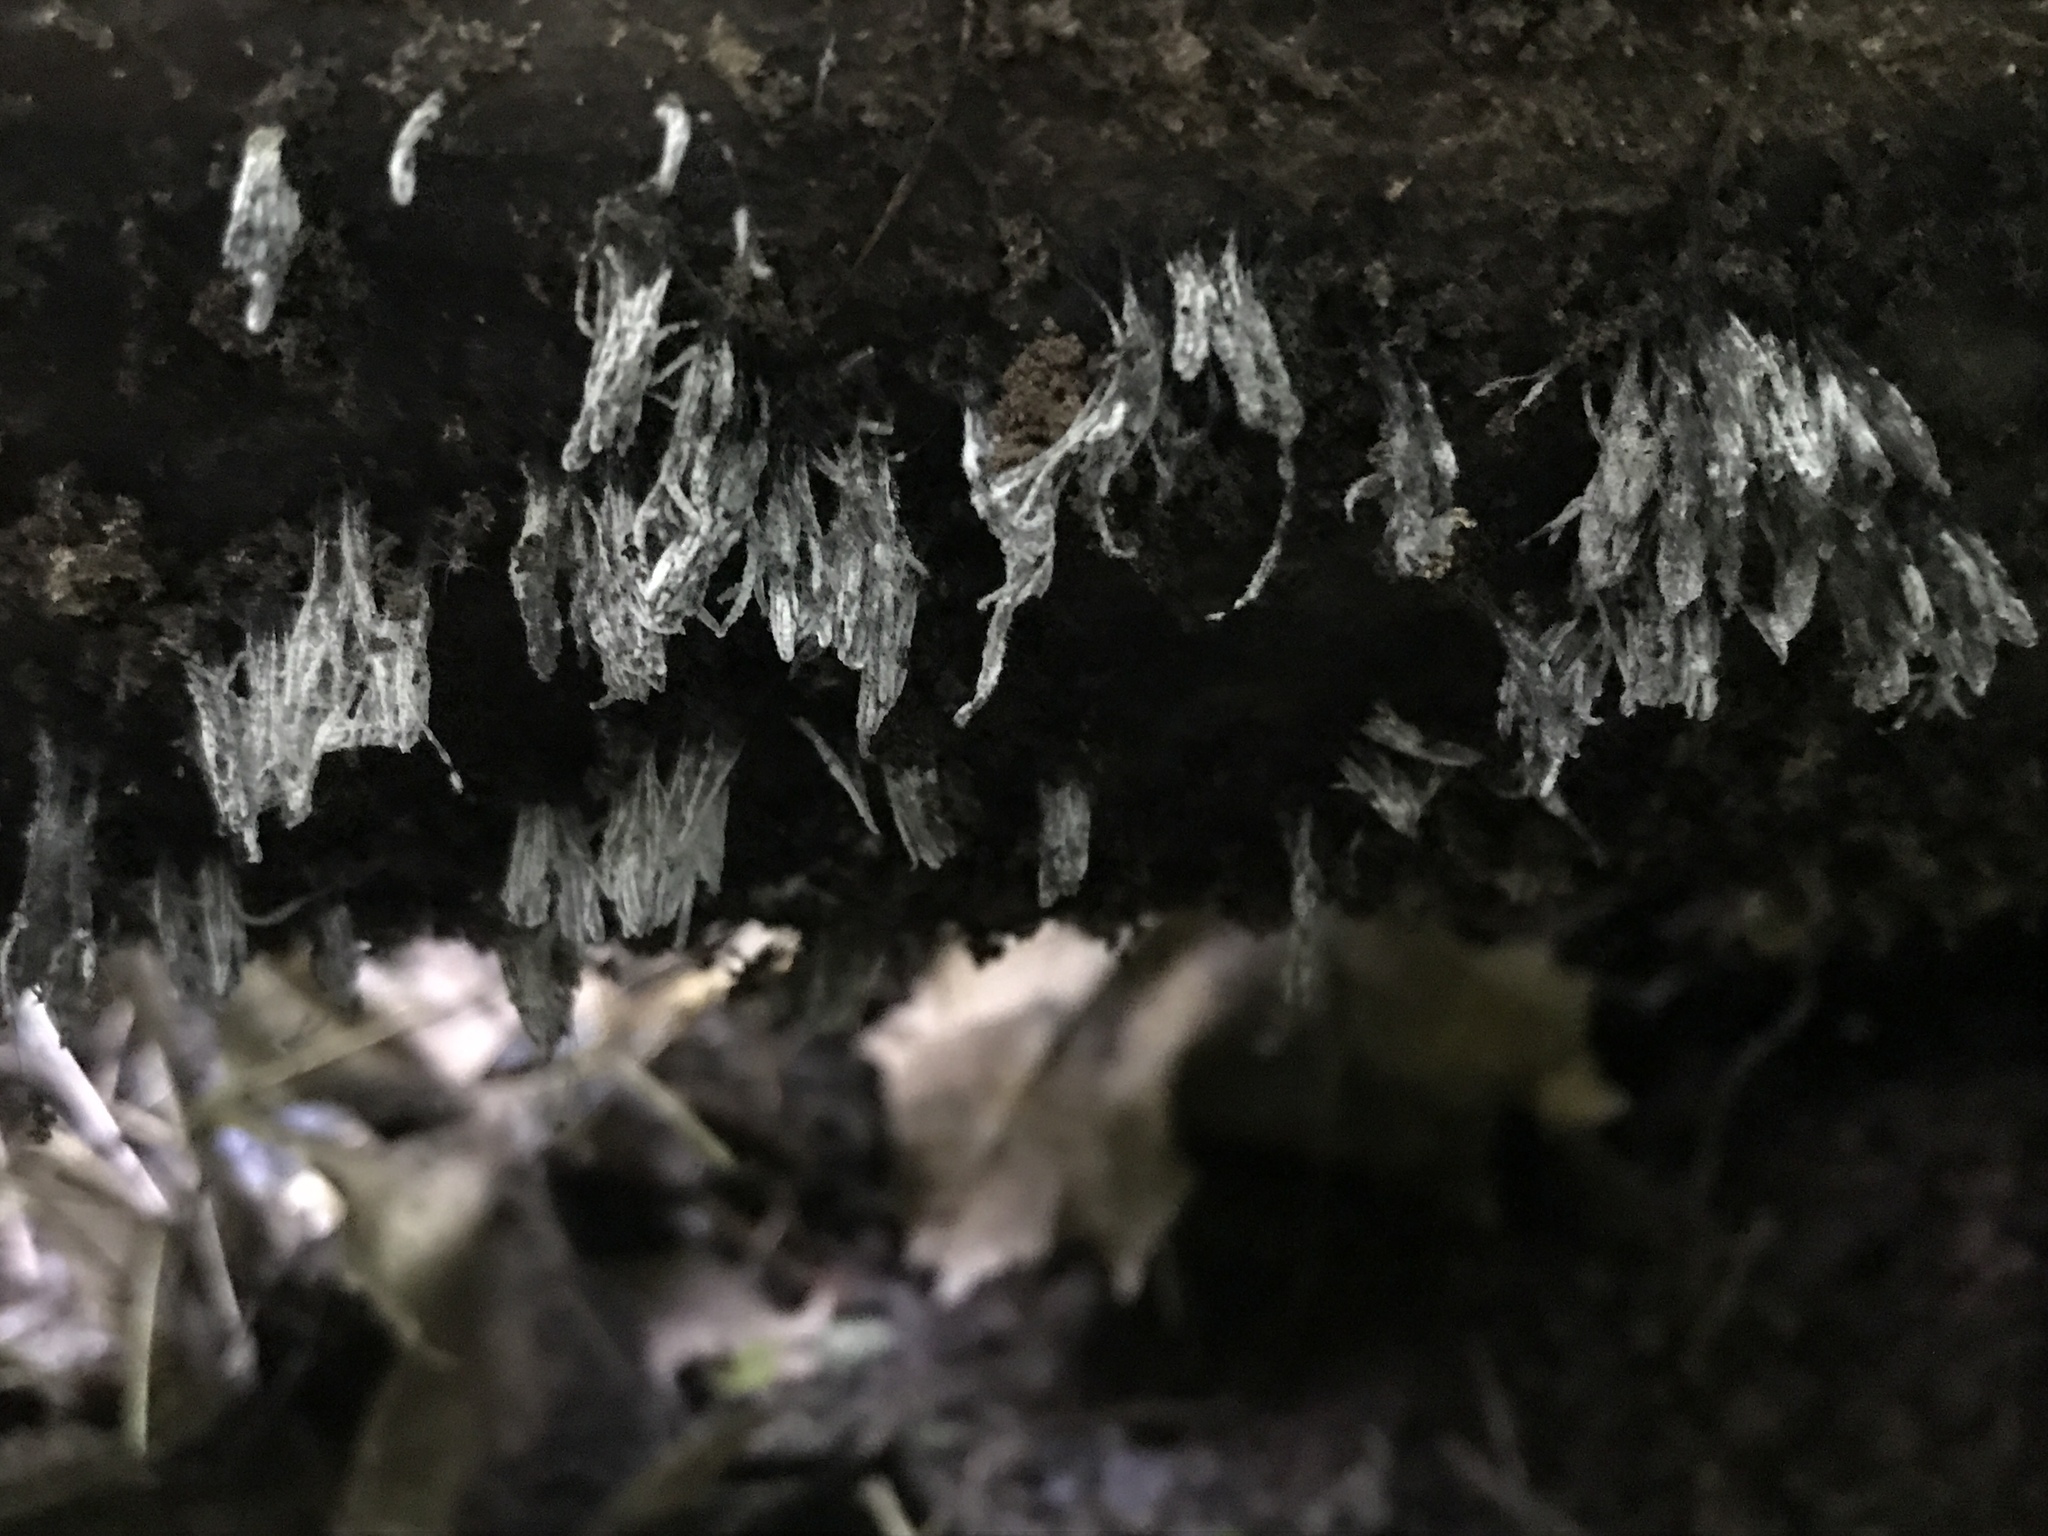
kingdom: Fungi
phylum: Ascomycota
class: Sordariomycetes
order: Hypocreales
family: Bionectriaceae
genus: Nectriopsis
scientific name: Nectriopsis rexiana
